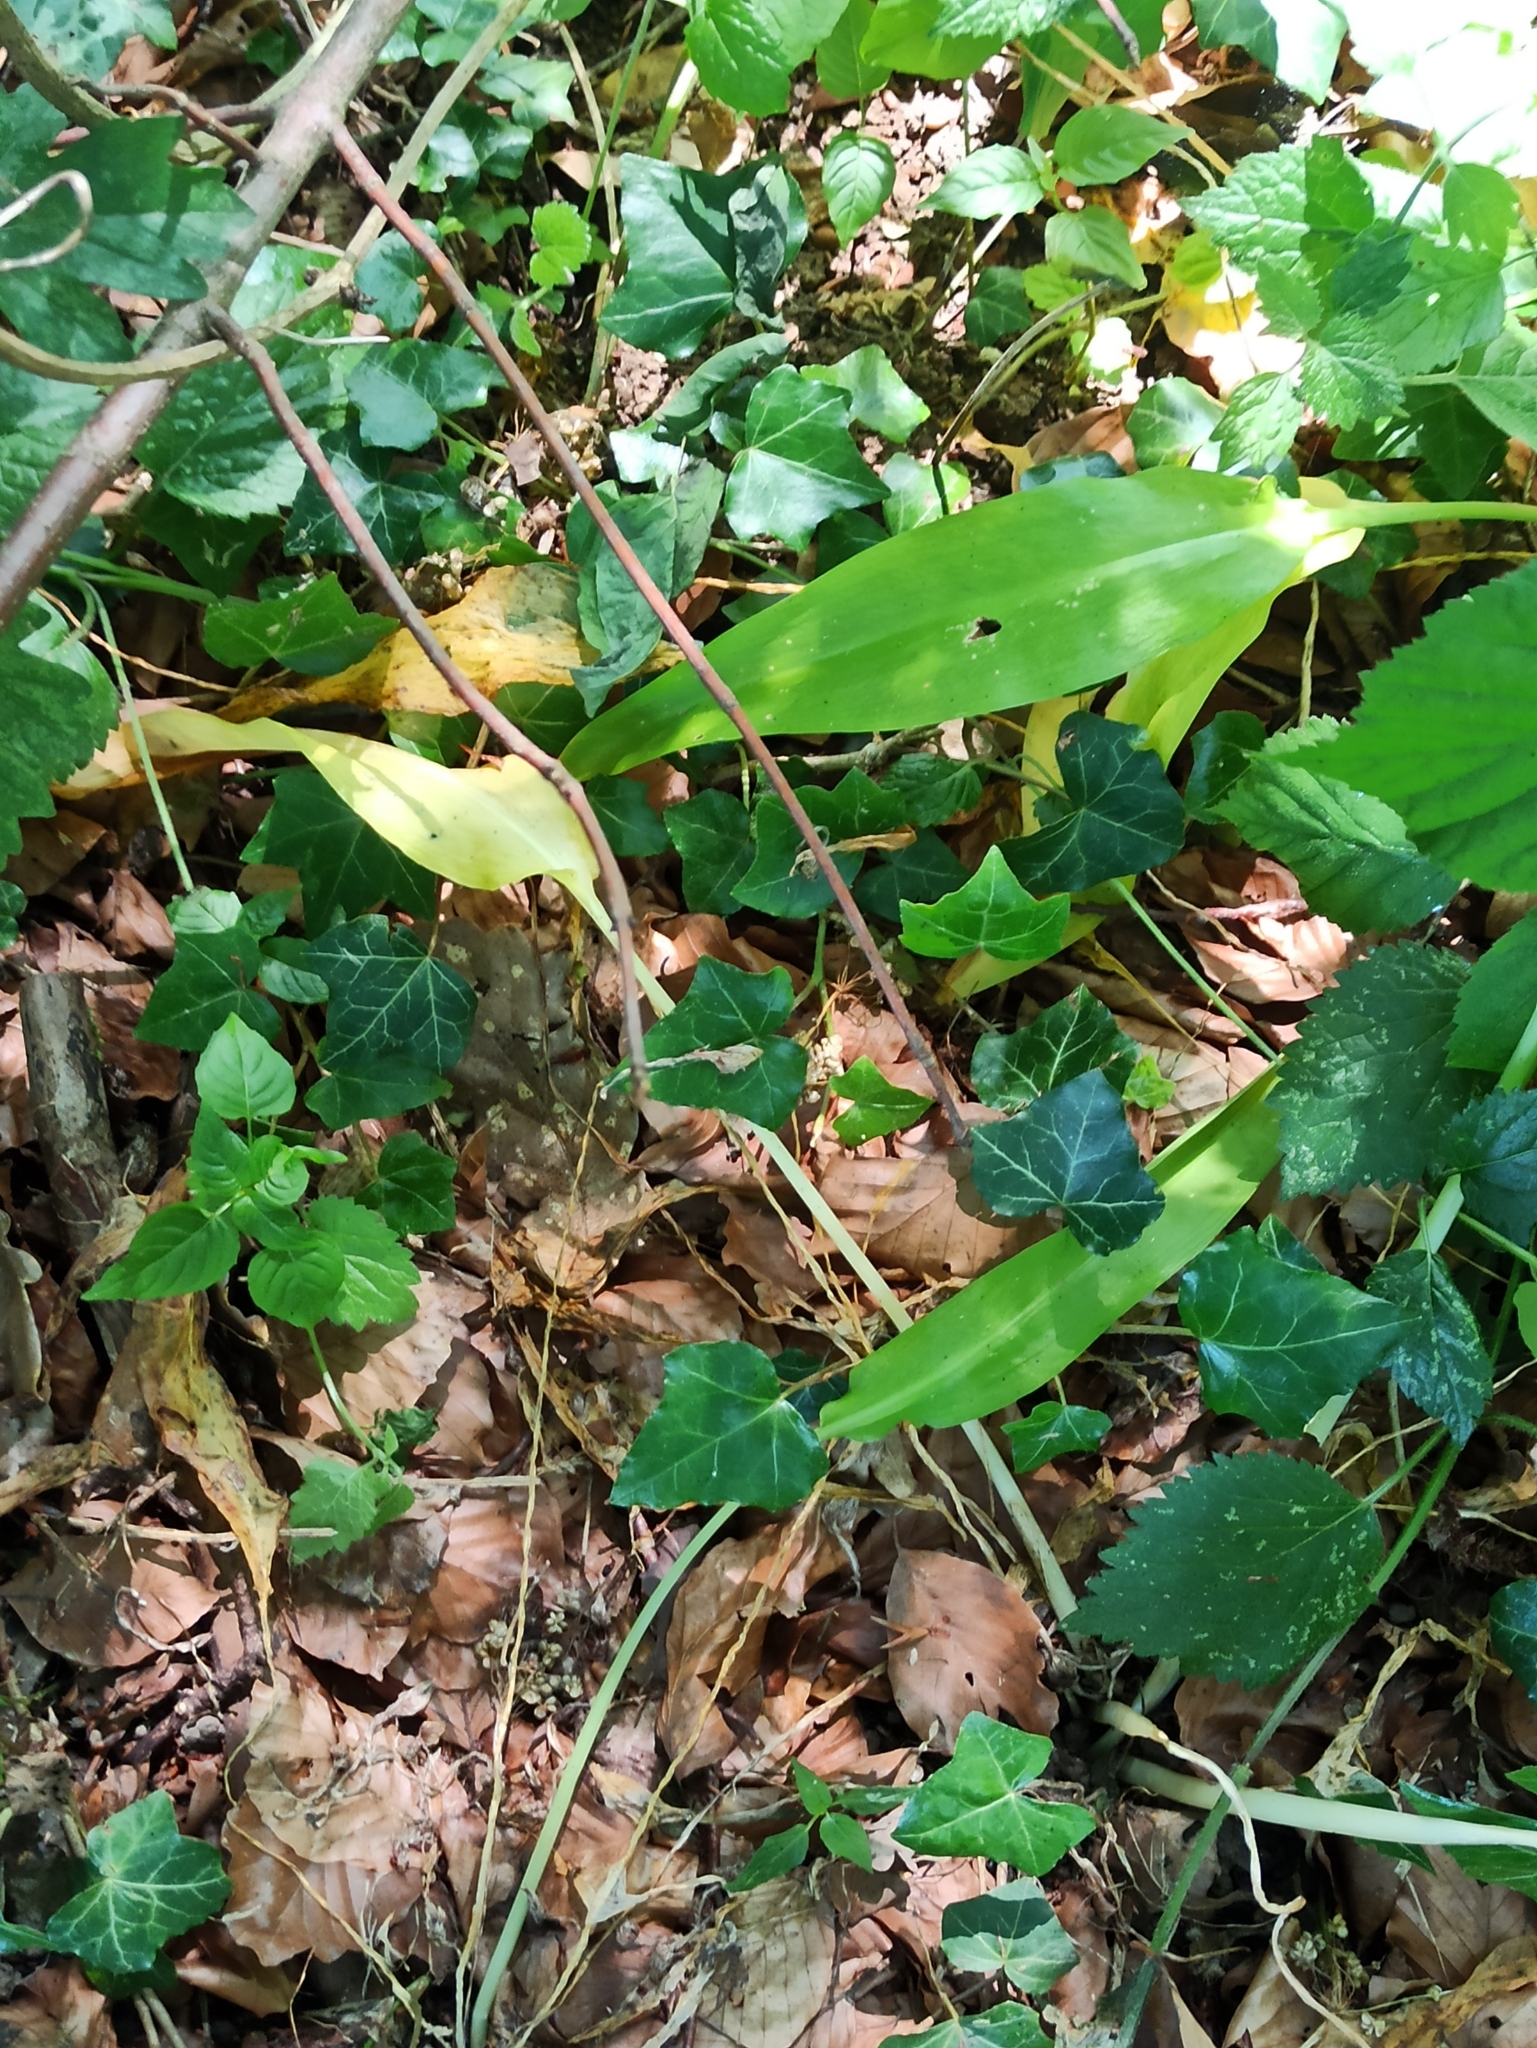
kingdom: Plantae
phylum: Tracheophyta
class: Liliopsida
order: Asparagales
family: Amaryllidaceae
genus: Allium
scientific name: Allium ursinum
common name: Ramsons
